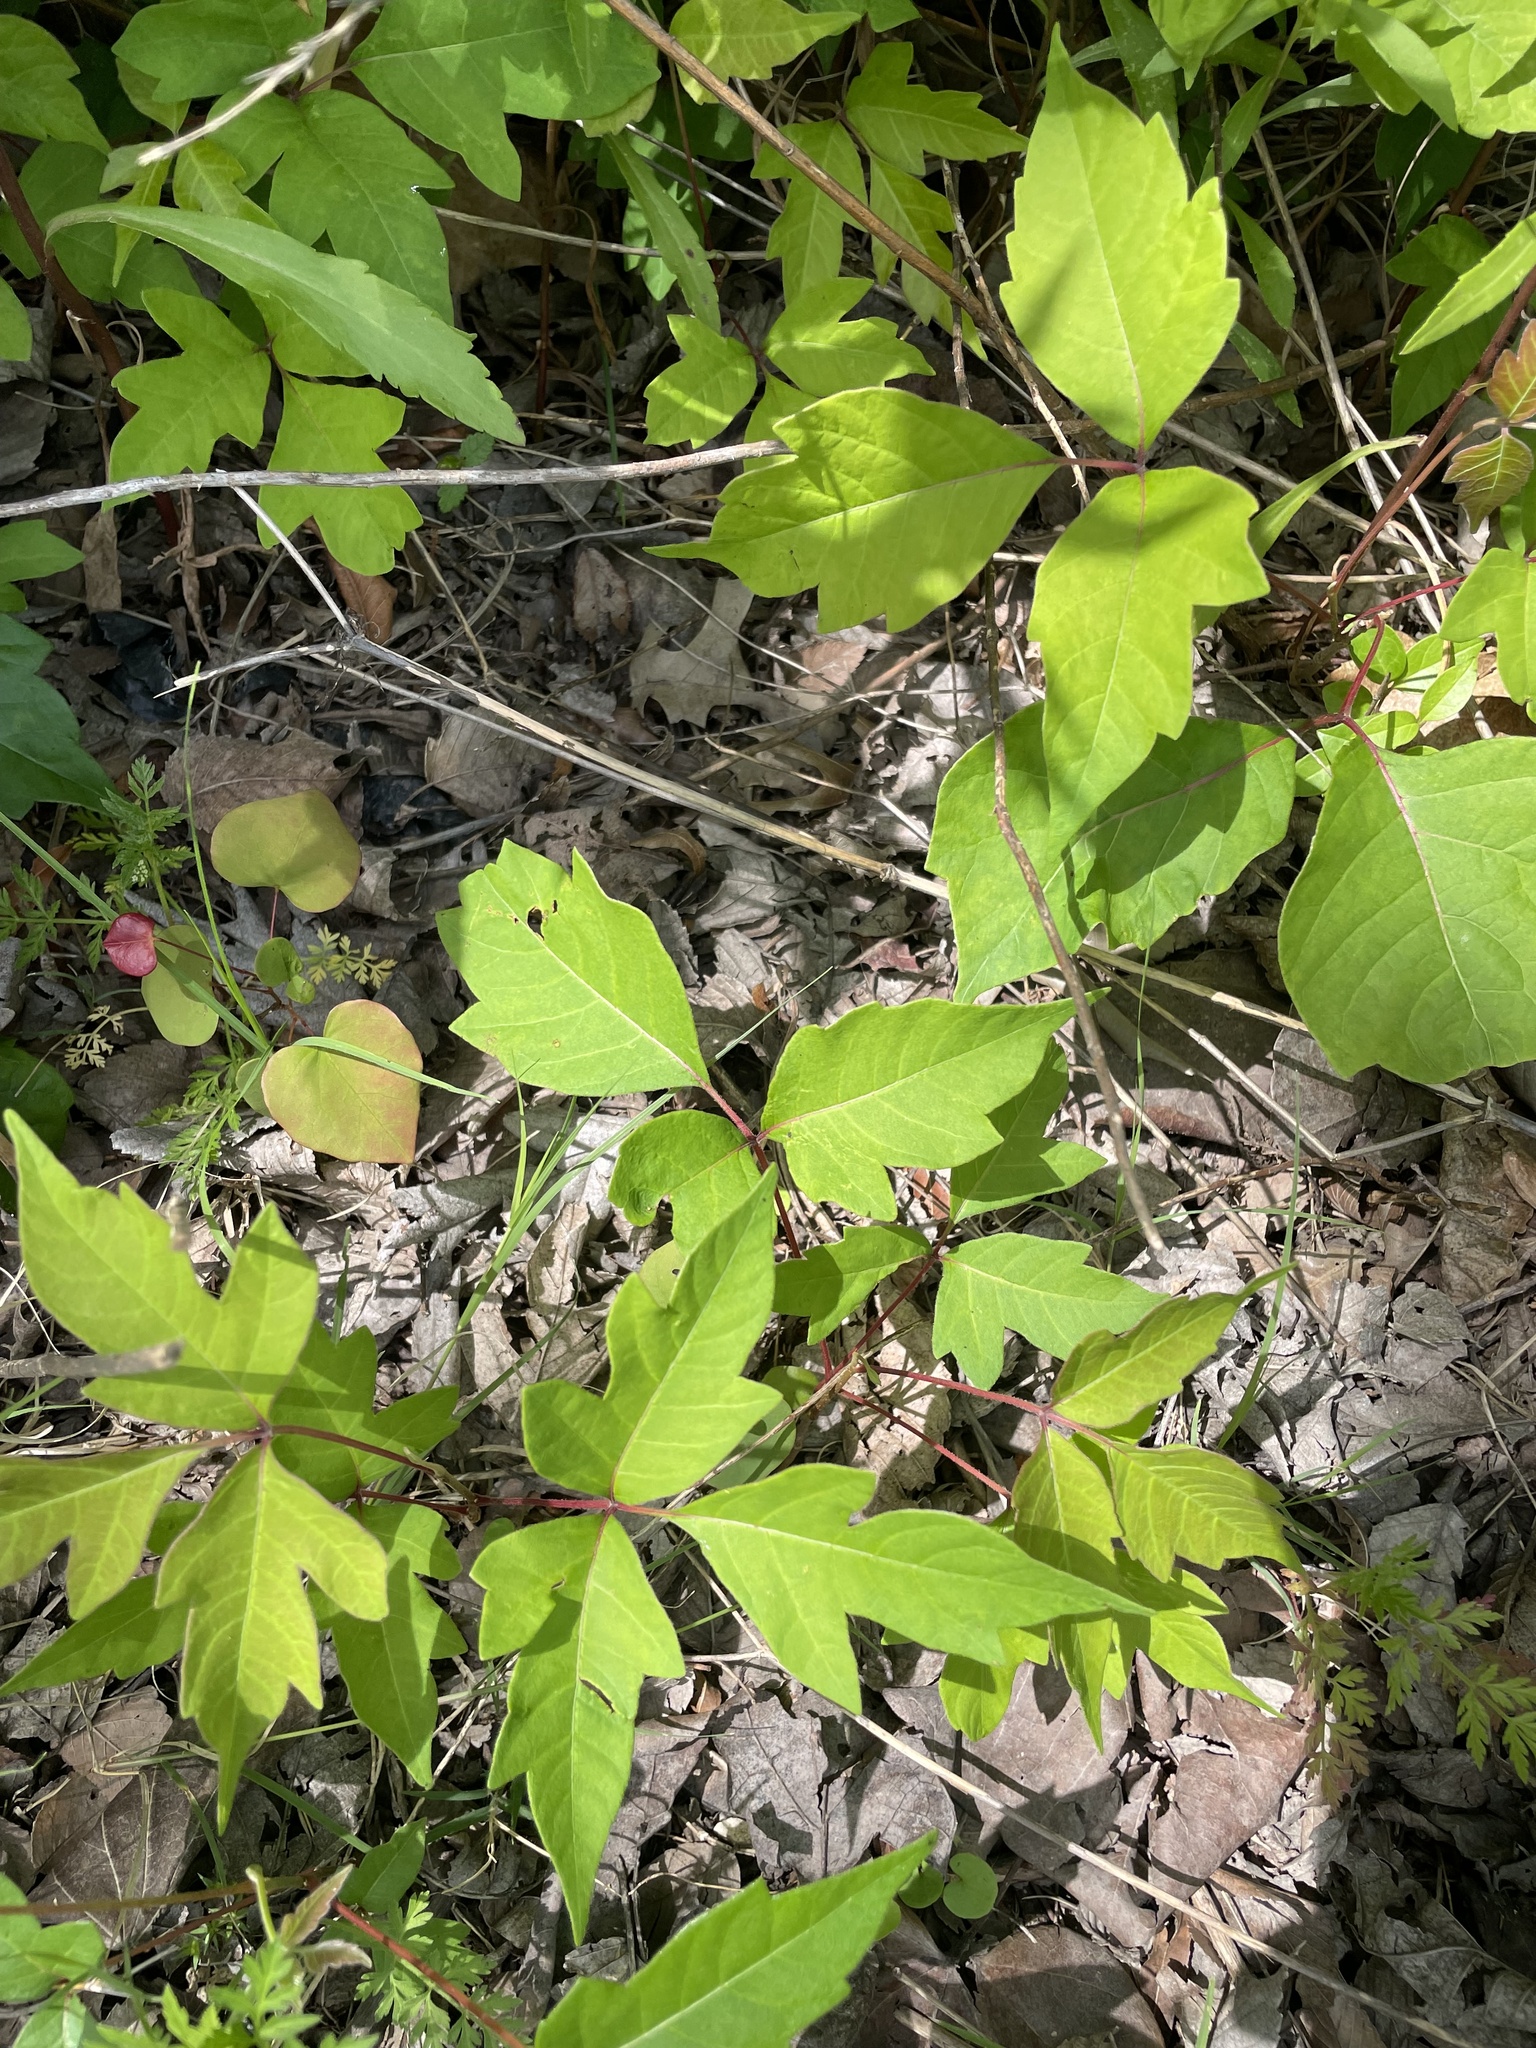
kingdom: Plantae
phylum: Tracheophyta
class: Magnoliopsida
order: Sapindales
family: Anacardiaceae
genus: Toxicodendron
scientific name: Toxicodendron radicans
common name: Poison ivy
